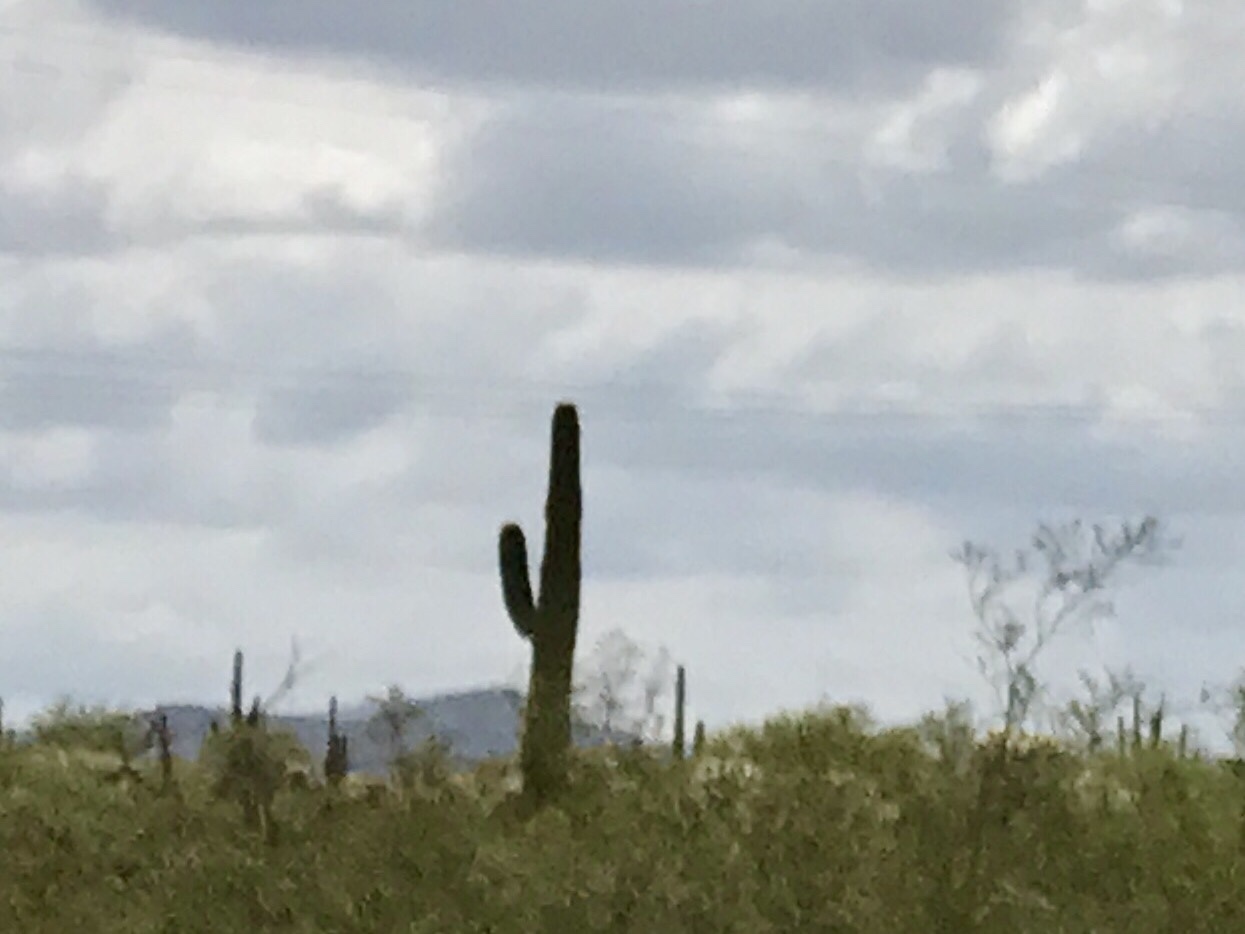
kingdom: Plantae
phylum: Tracheophyta
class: Magnoliopsida
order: Caryophyllales
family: Cactaceae
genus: Carnegiea
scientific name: Carnegiea gigantea
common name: Saguaro
